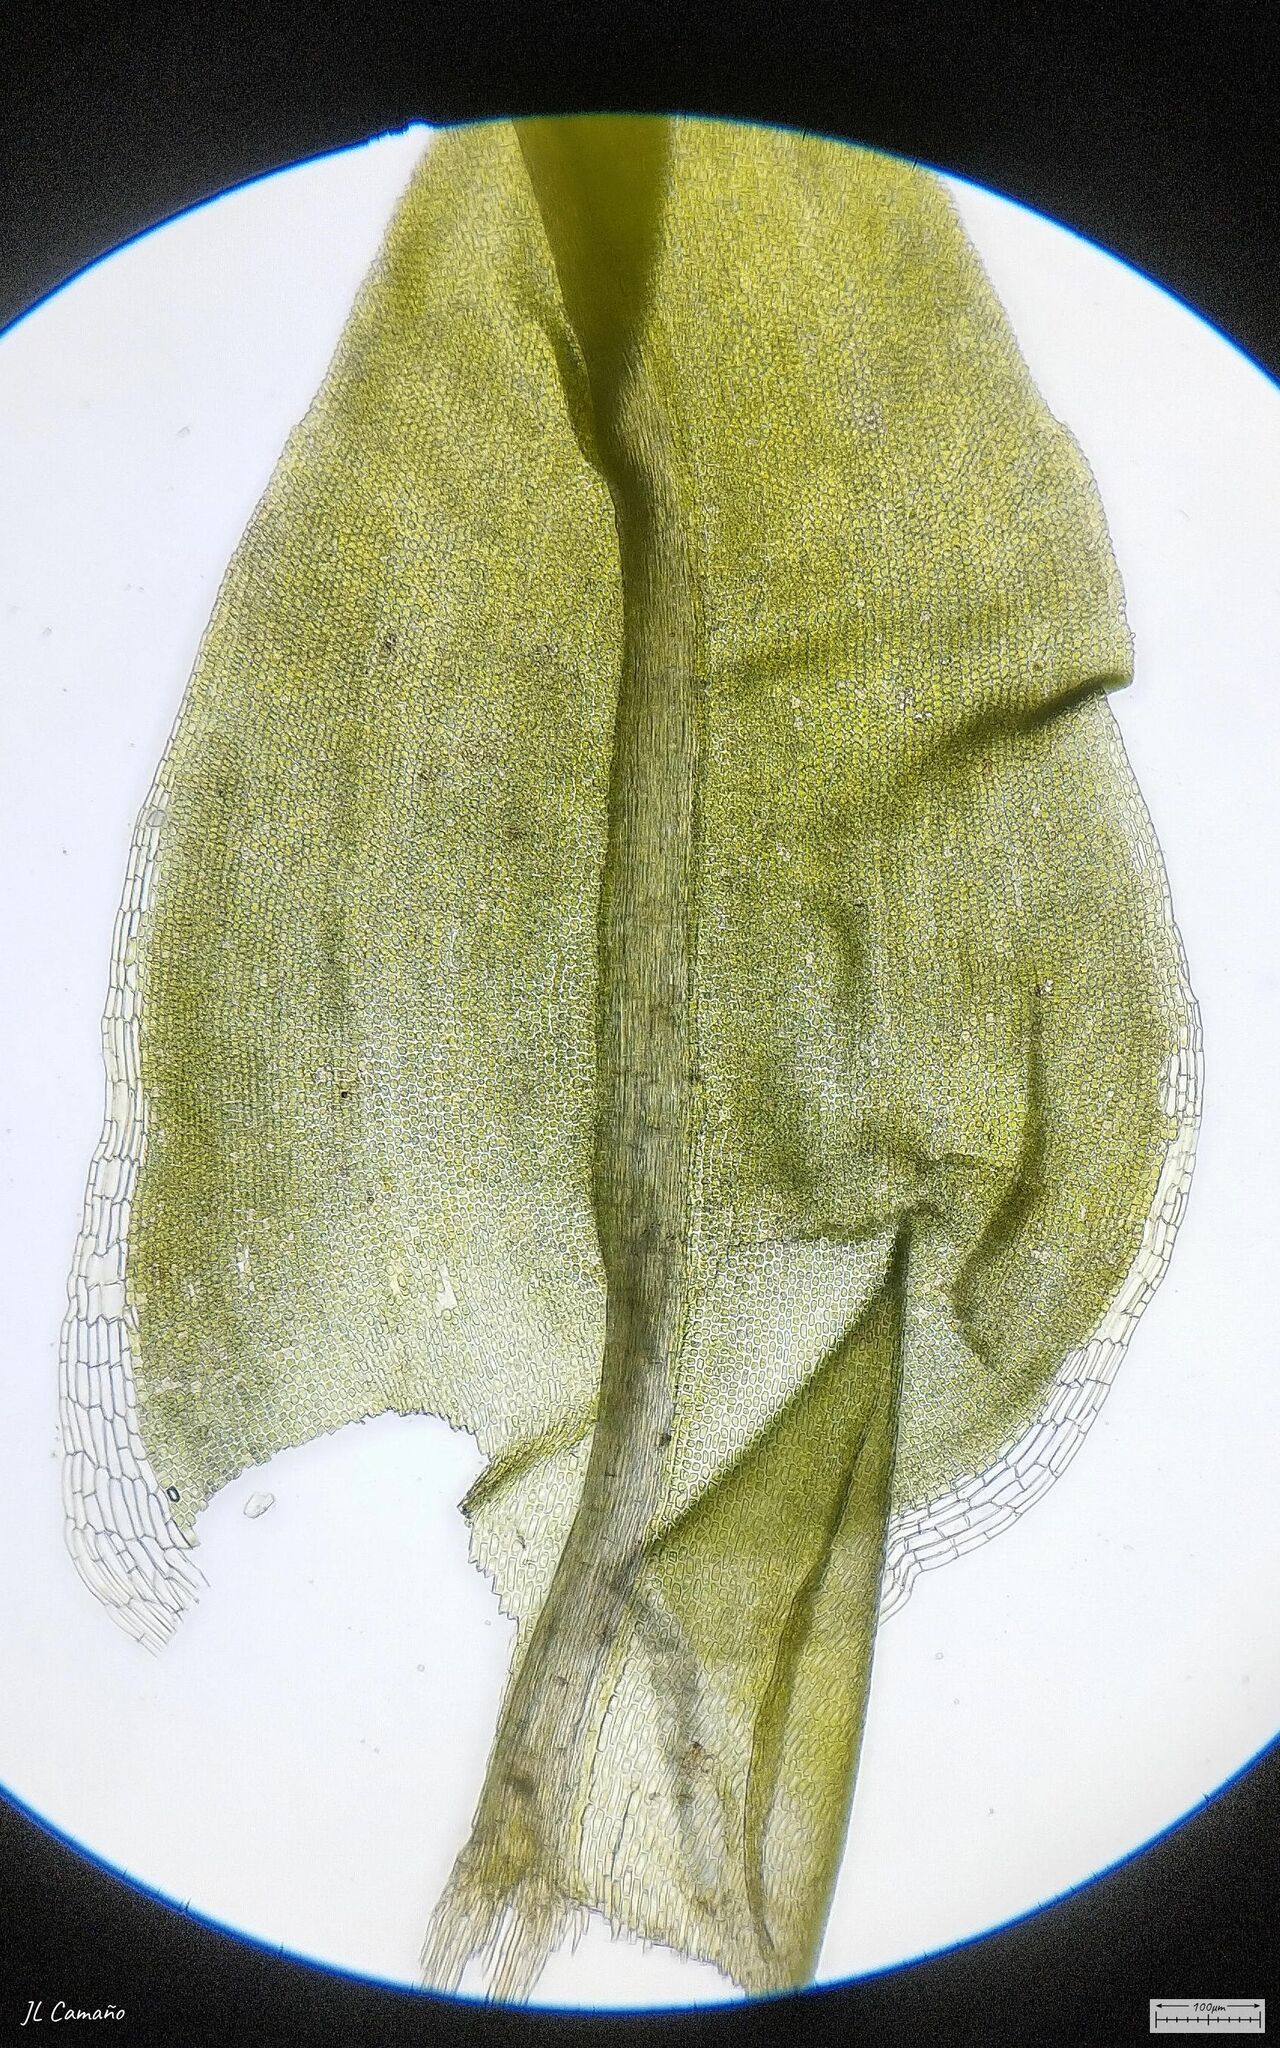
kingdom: Plantae
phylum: Bryophyta
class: Bryopsida
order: Pottiales
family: Pottiaceae
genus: Pleurochaete
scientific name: Pleurochaete squarrosa
